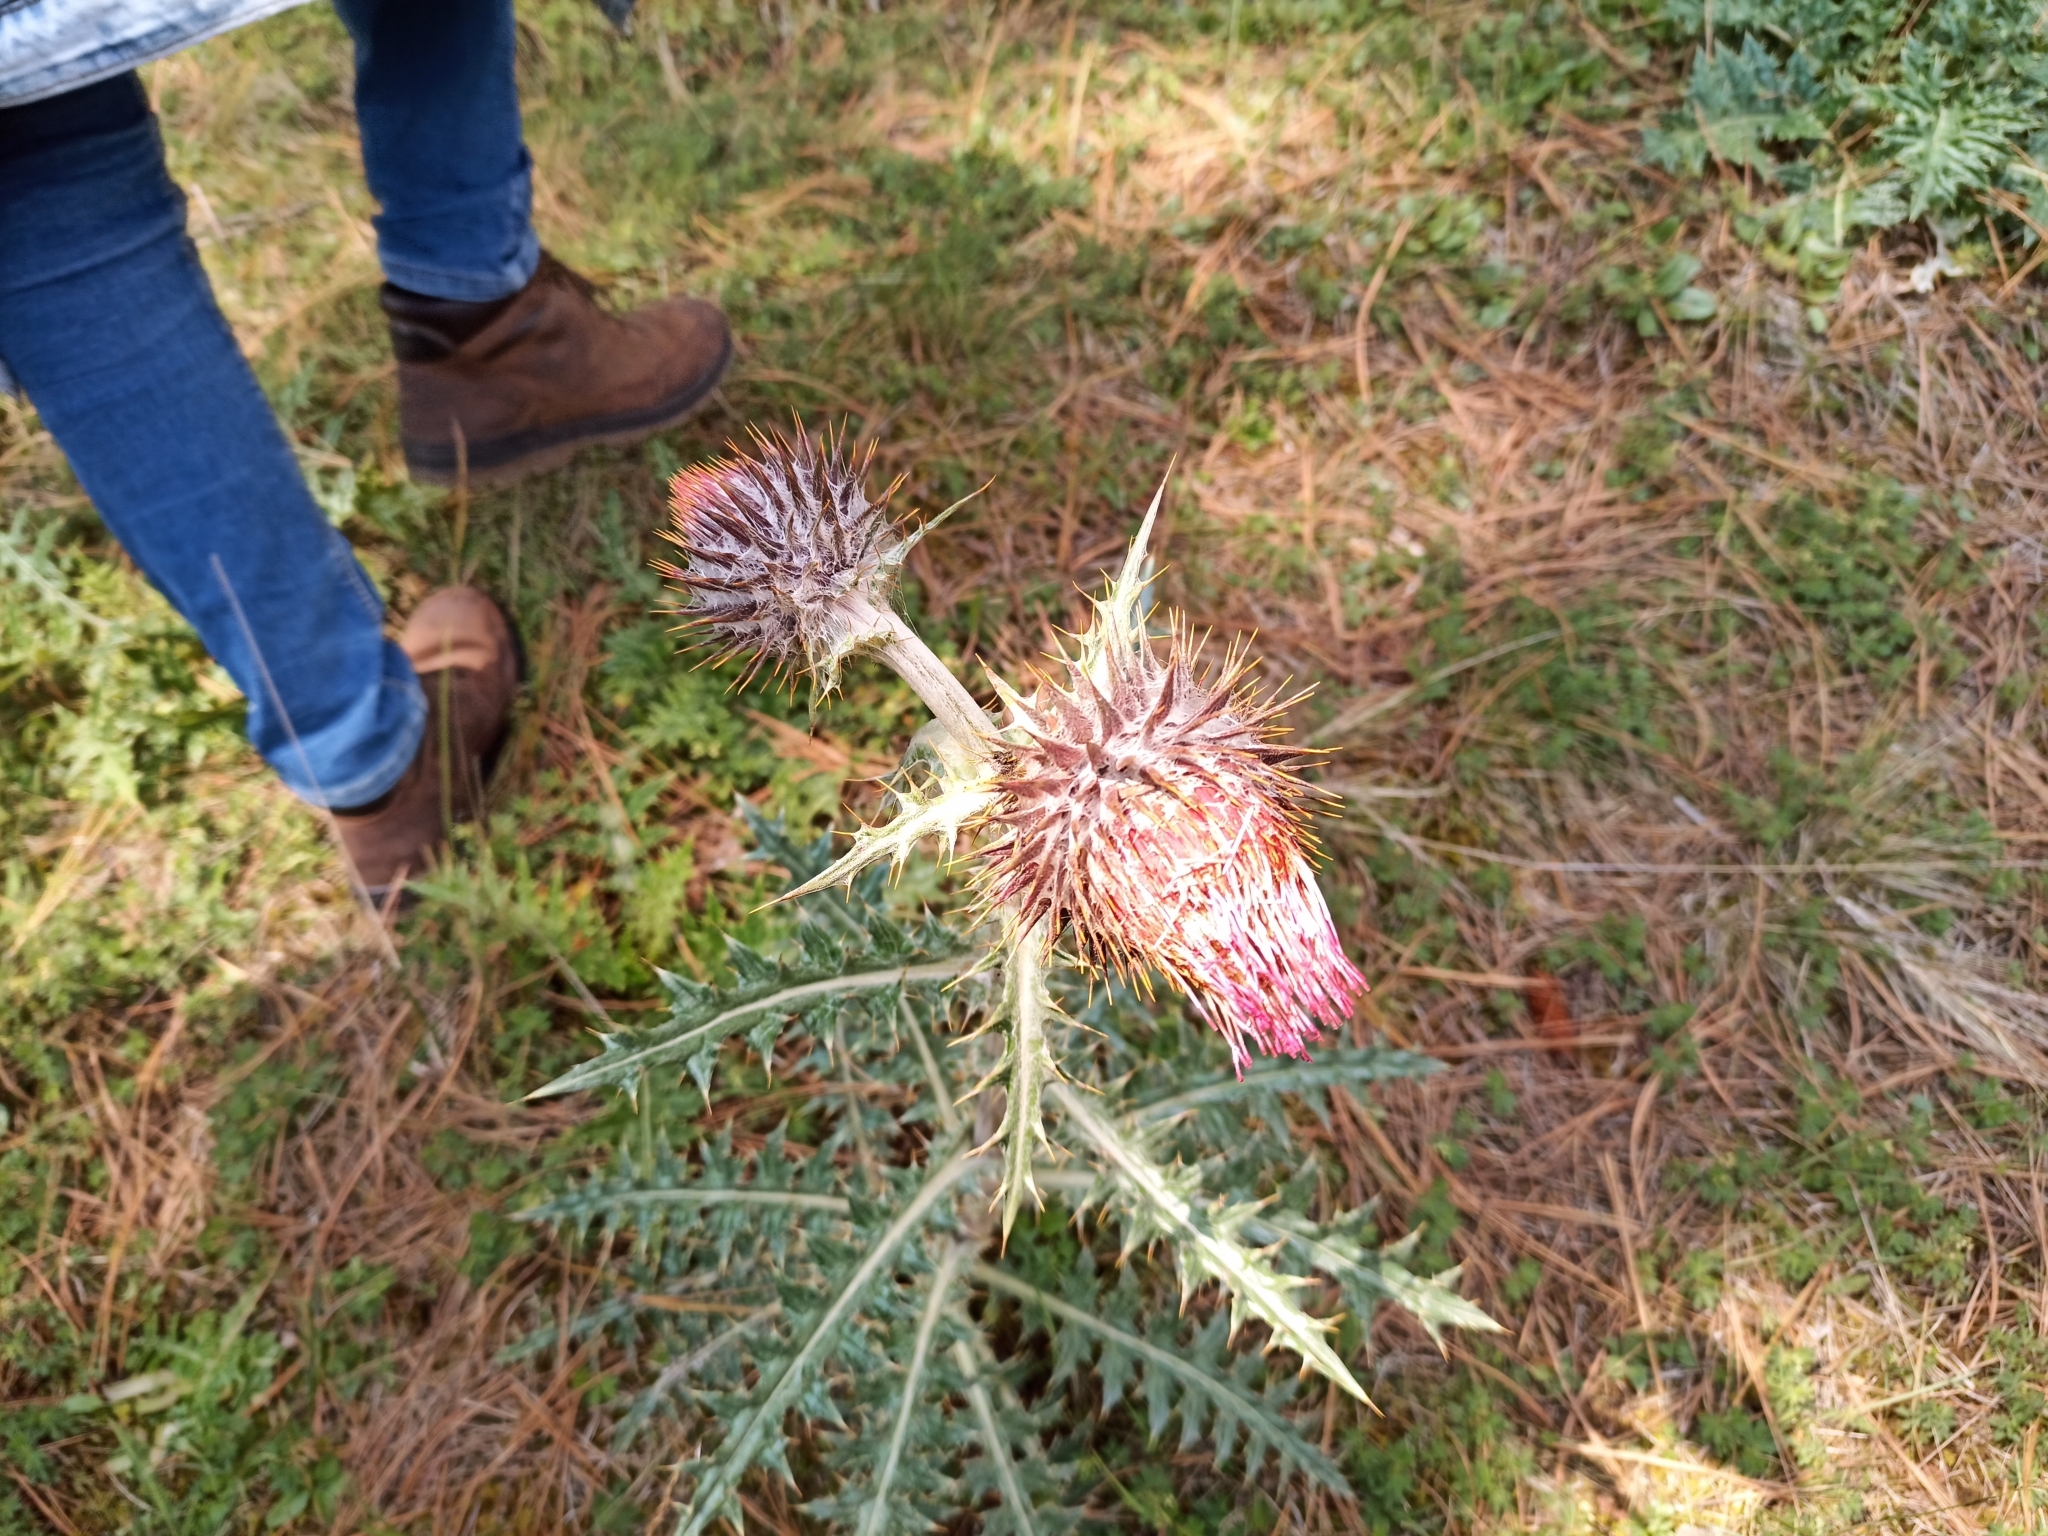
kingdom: Plantae
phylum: Tracheophyta
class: Magnoliopsida
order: Asterales
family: Asteraceae
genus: Cirsium
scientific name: Cirsium ehrenbergii
